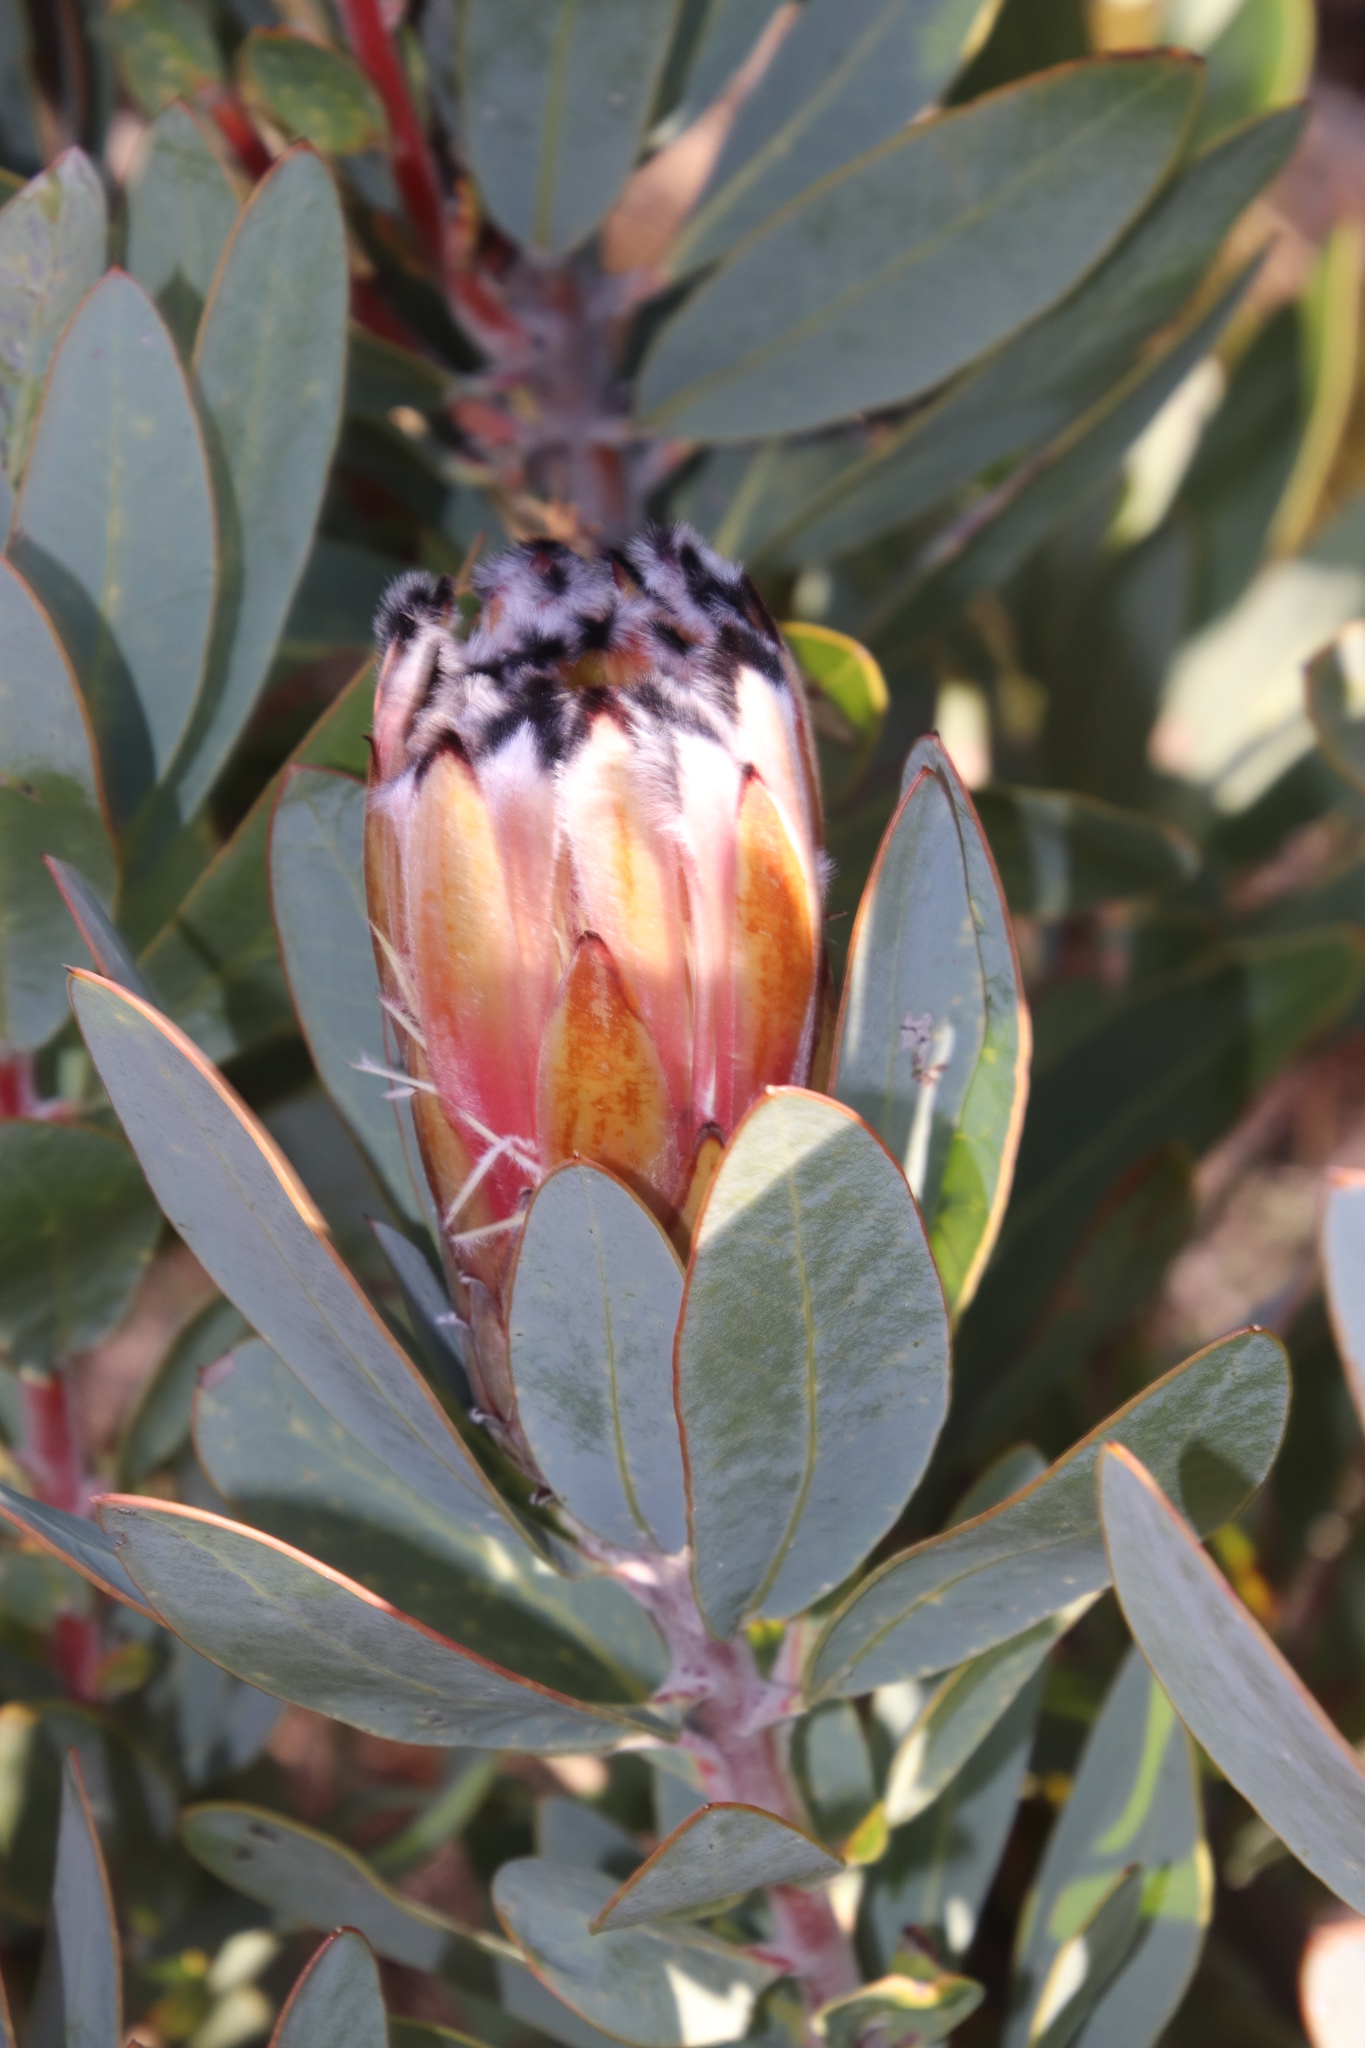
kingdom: Plantae
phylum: Tracheophyta
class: Magnoliopsida
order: Proteales
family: Proteaceae
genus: Protea
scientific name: Protea laurifolia
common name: Grey-leaf sugarbsh
